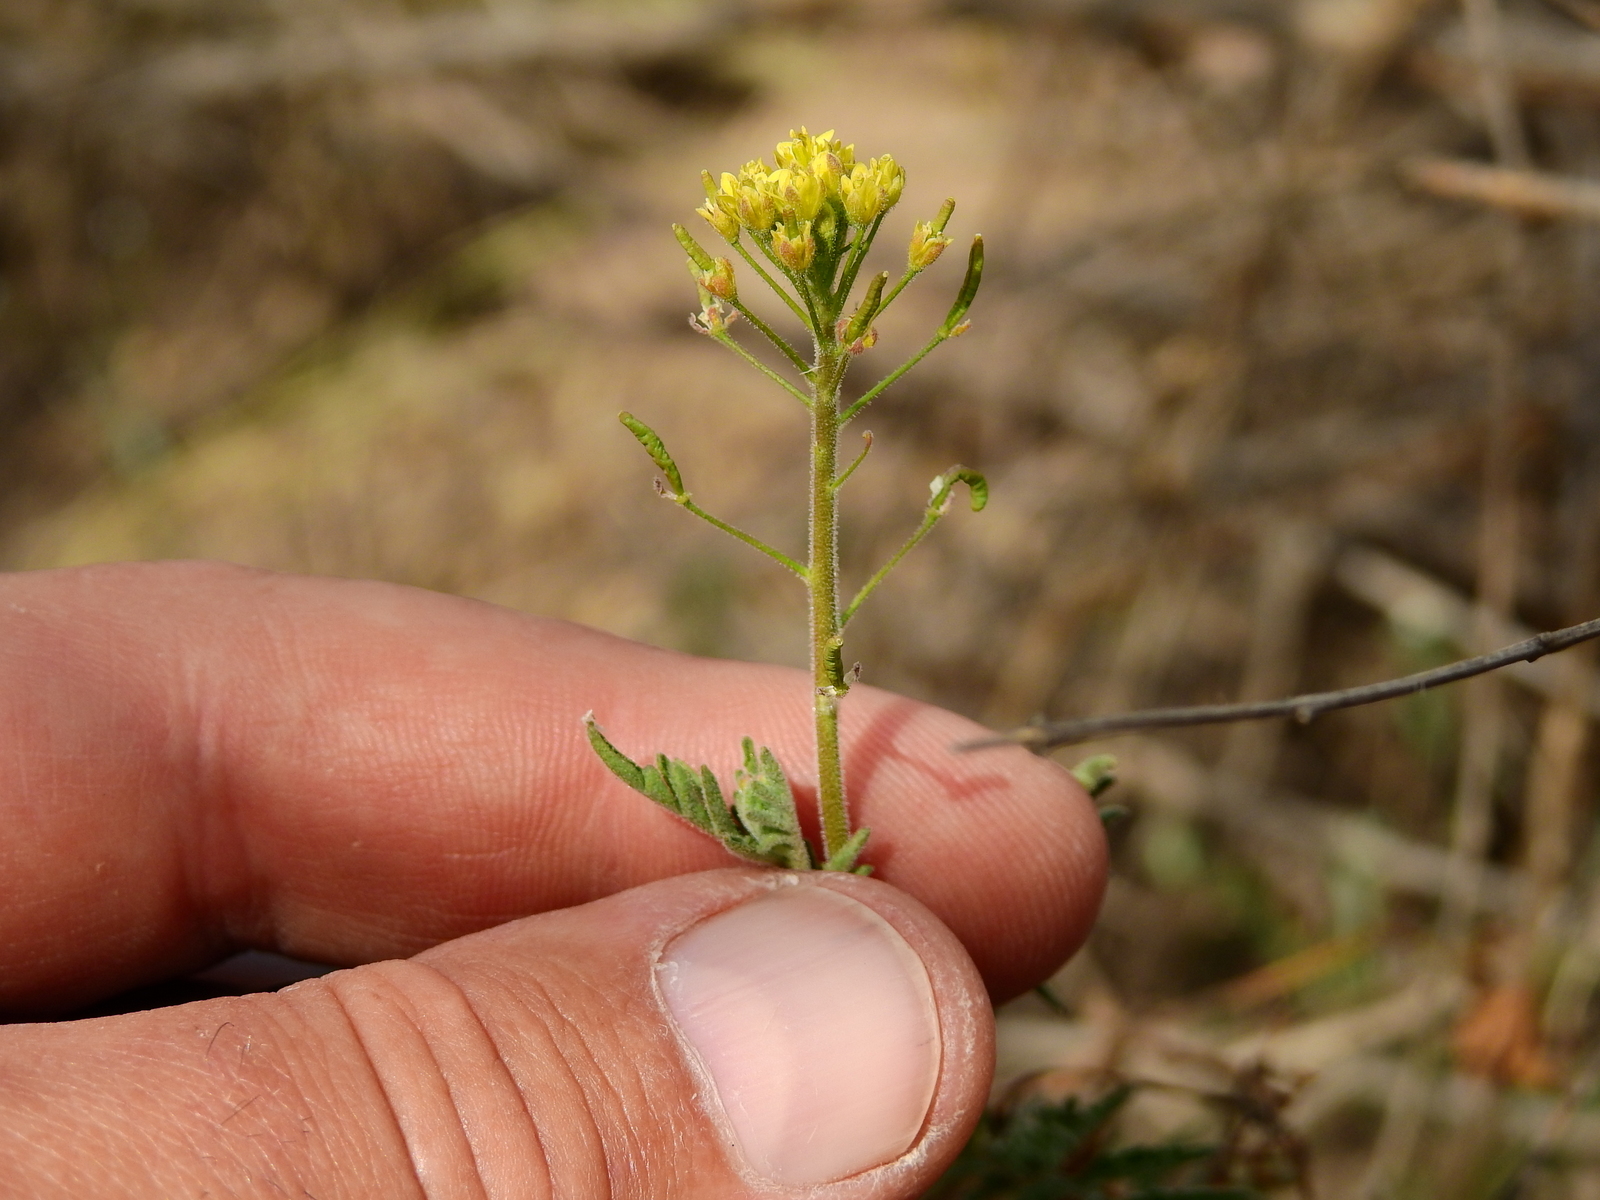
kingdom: Plantae
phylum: Tracheophyta
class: Magnoliopsida
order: Brassicales
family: Brassicaceae
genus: Descurainia
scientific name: Descurainia erodiifolia
